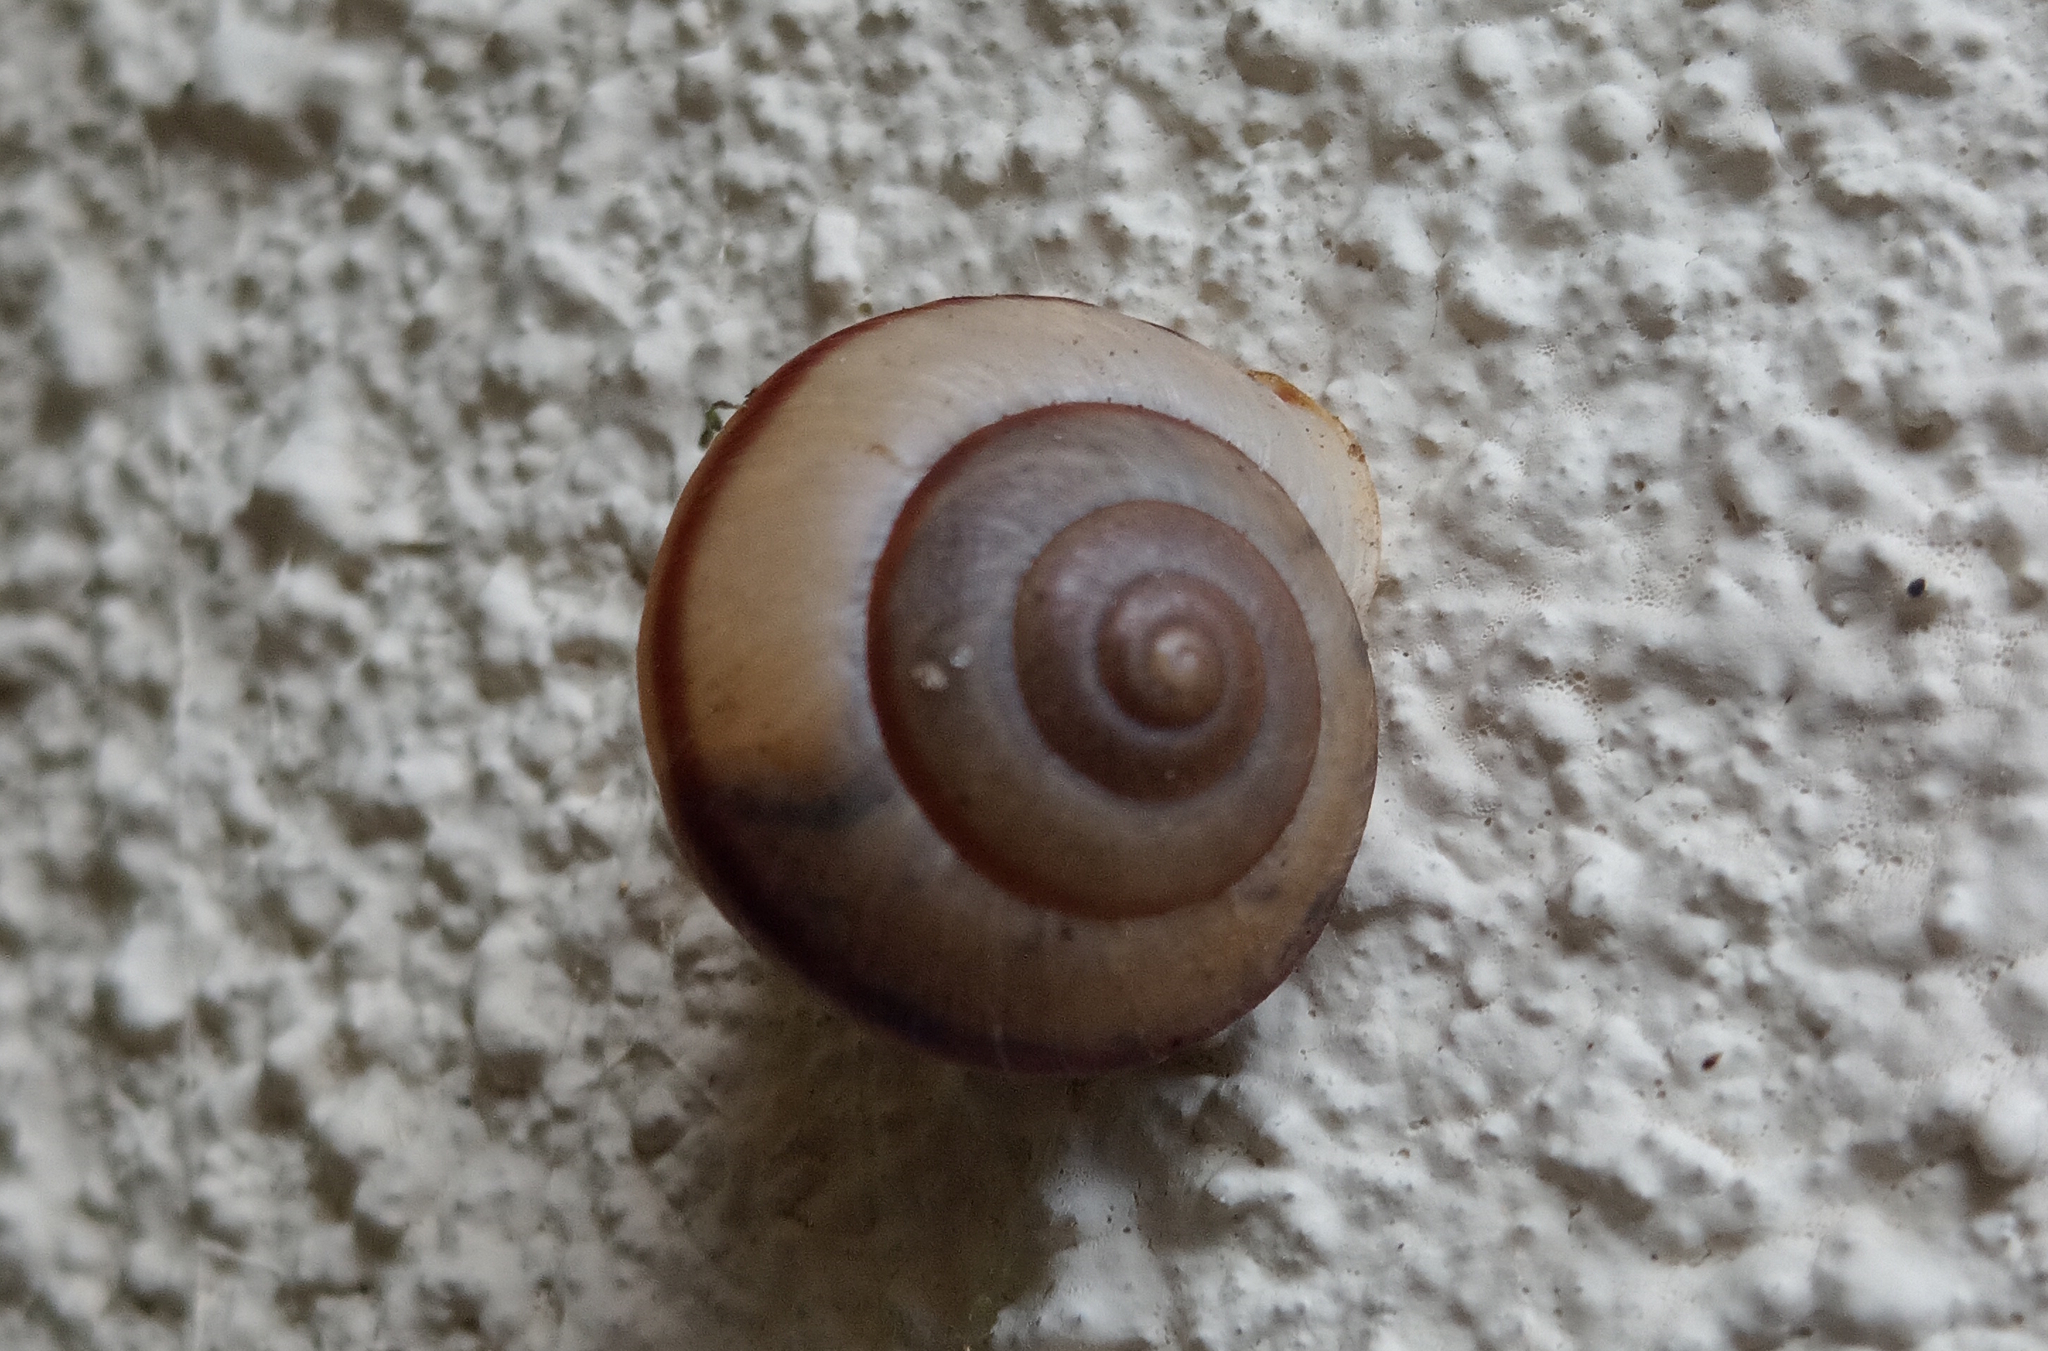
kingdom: Animalia
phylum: Mollusca
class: Gastropoda
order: Stylommatophora
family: Camaenidae
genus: Bradybaena
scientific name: Bradybaena similaris
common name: Asian trampsnail
